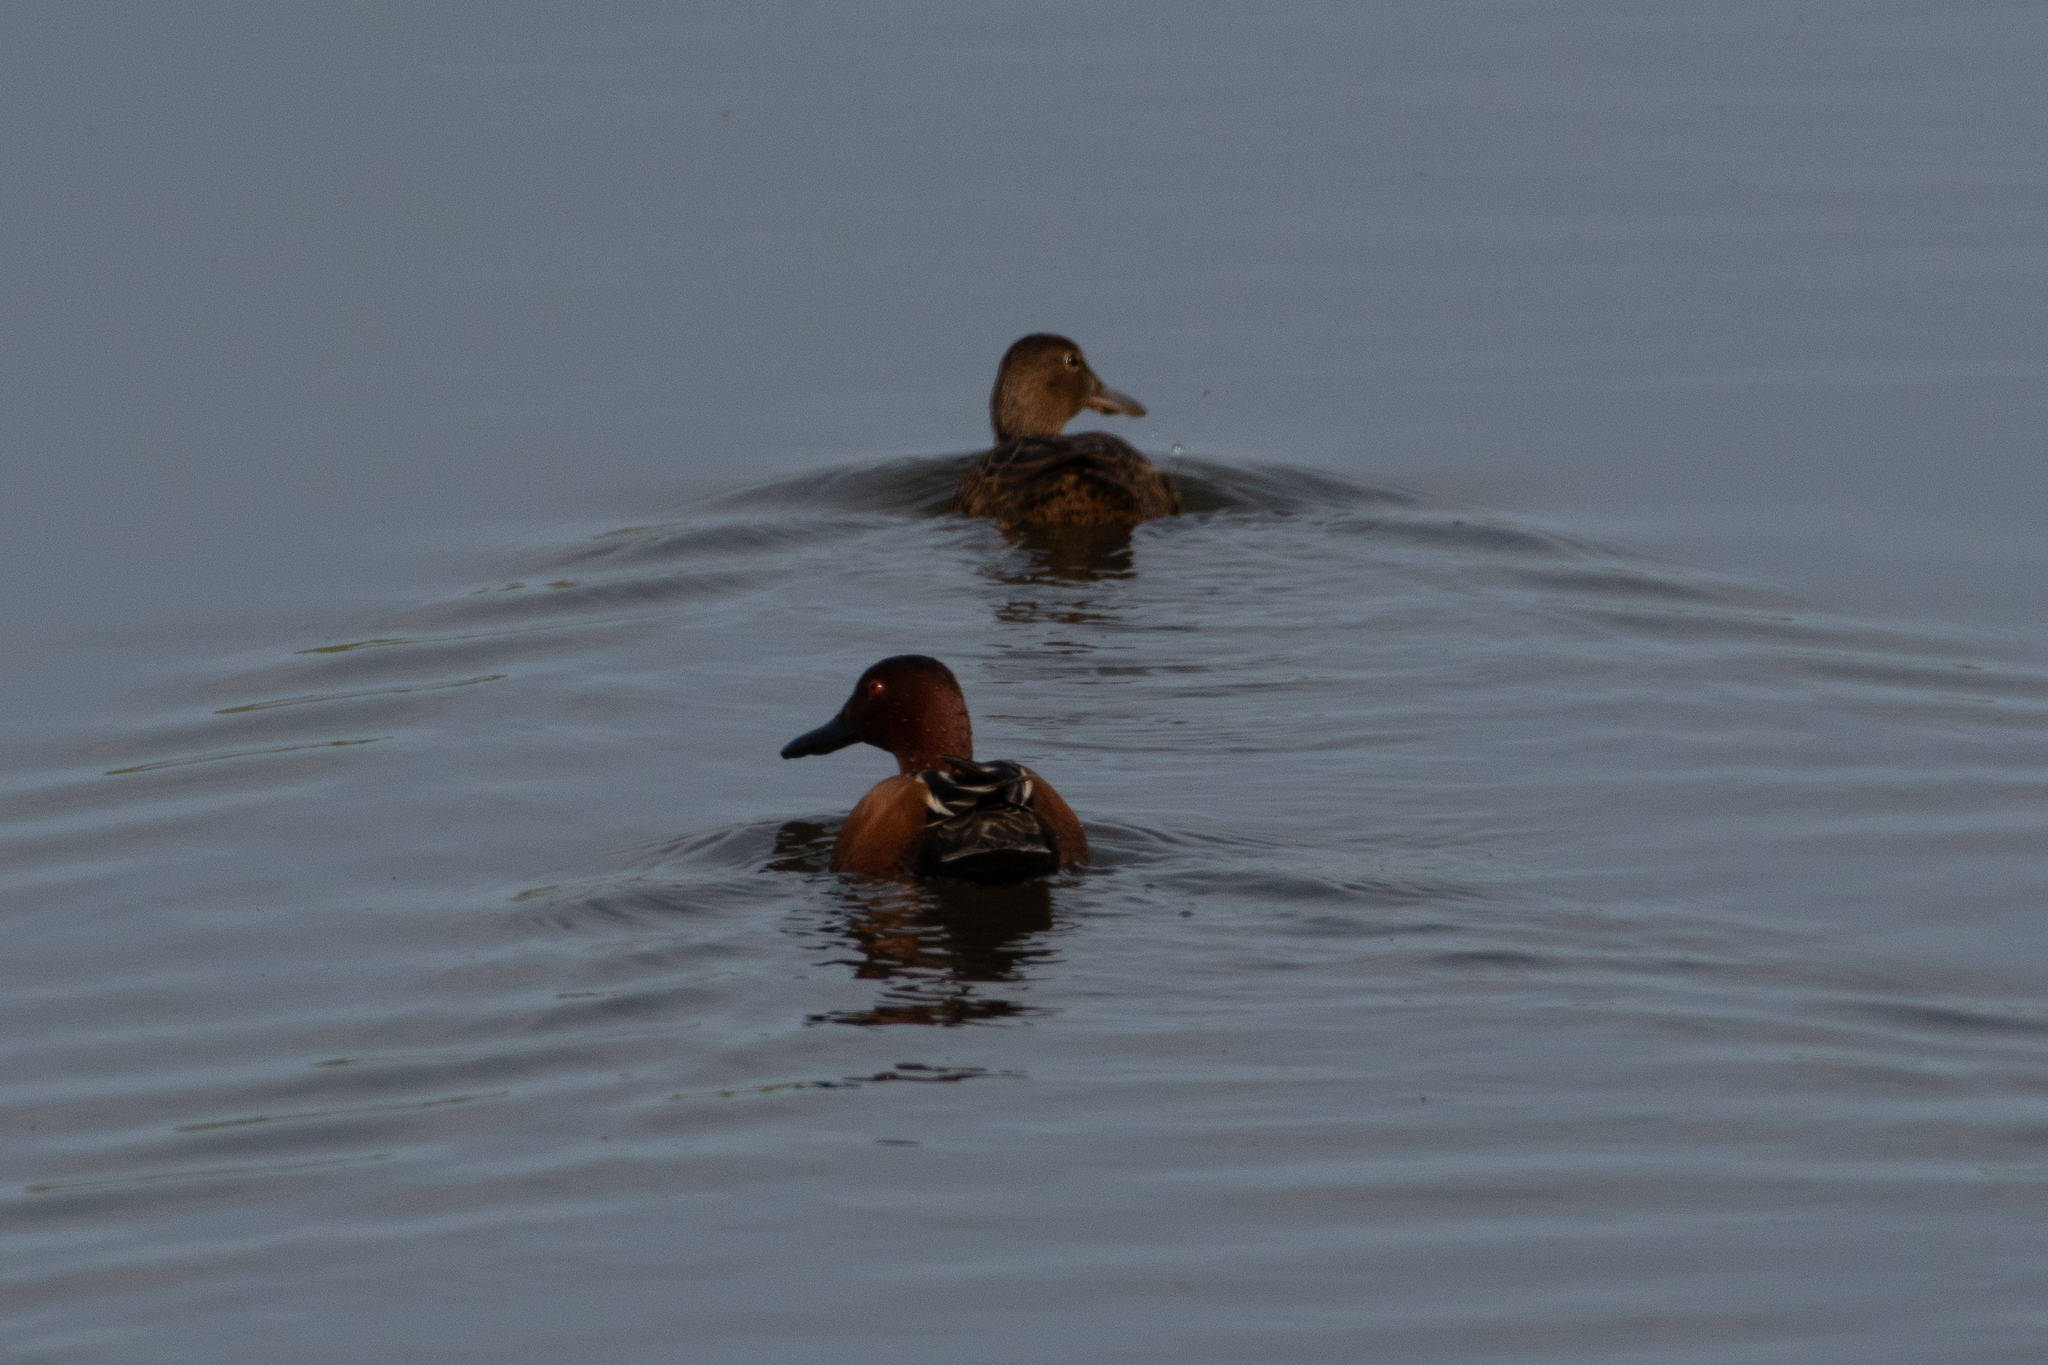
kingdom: Animalia
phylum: Chordata
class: Aves
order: Anseriformes
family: Anatidae
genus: Spatula
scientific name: Spatula cyanoptera
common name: Cinnamon teal
